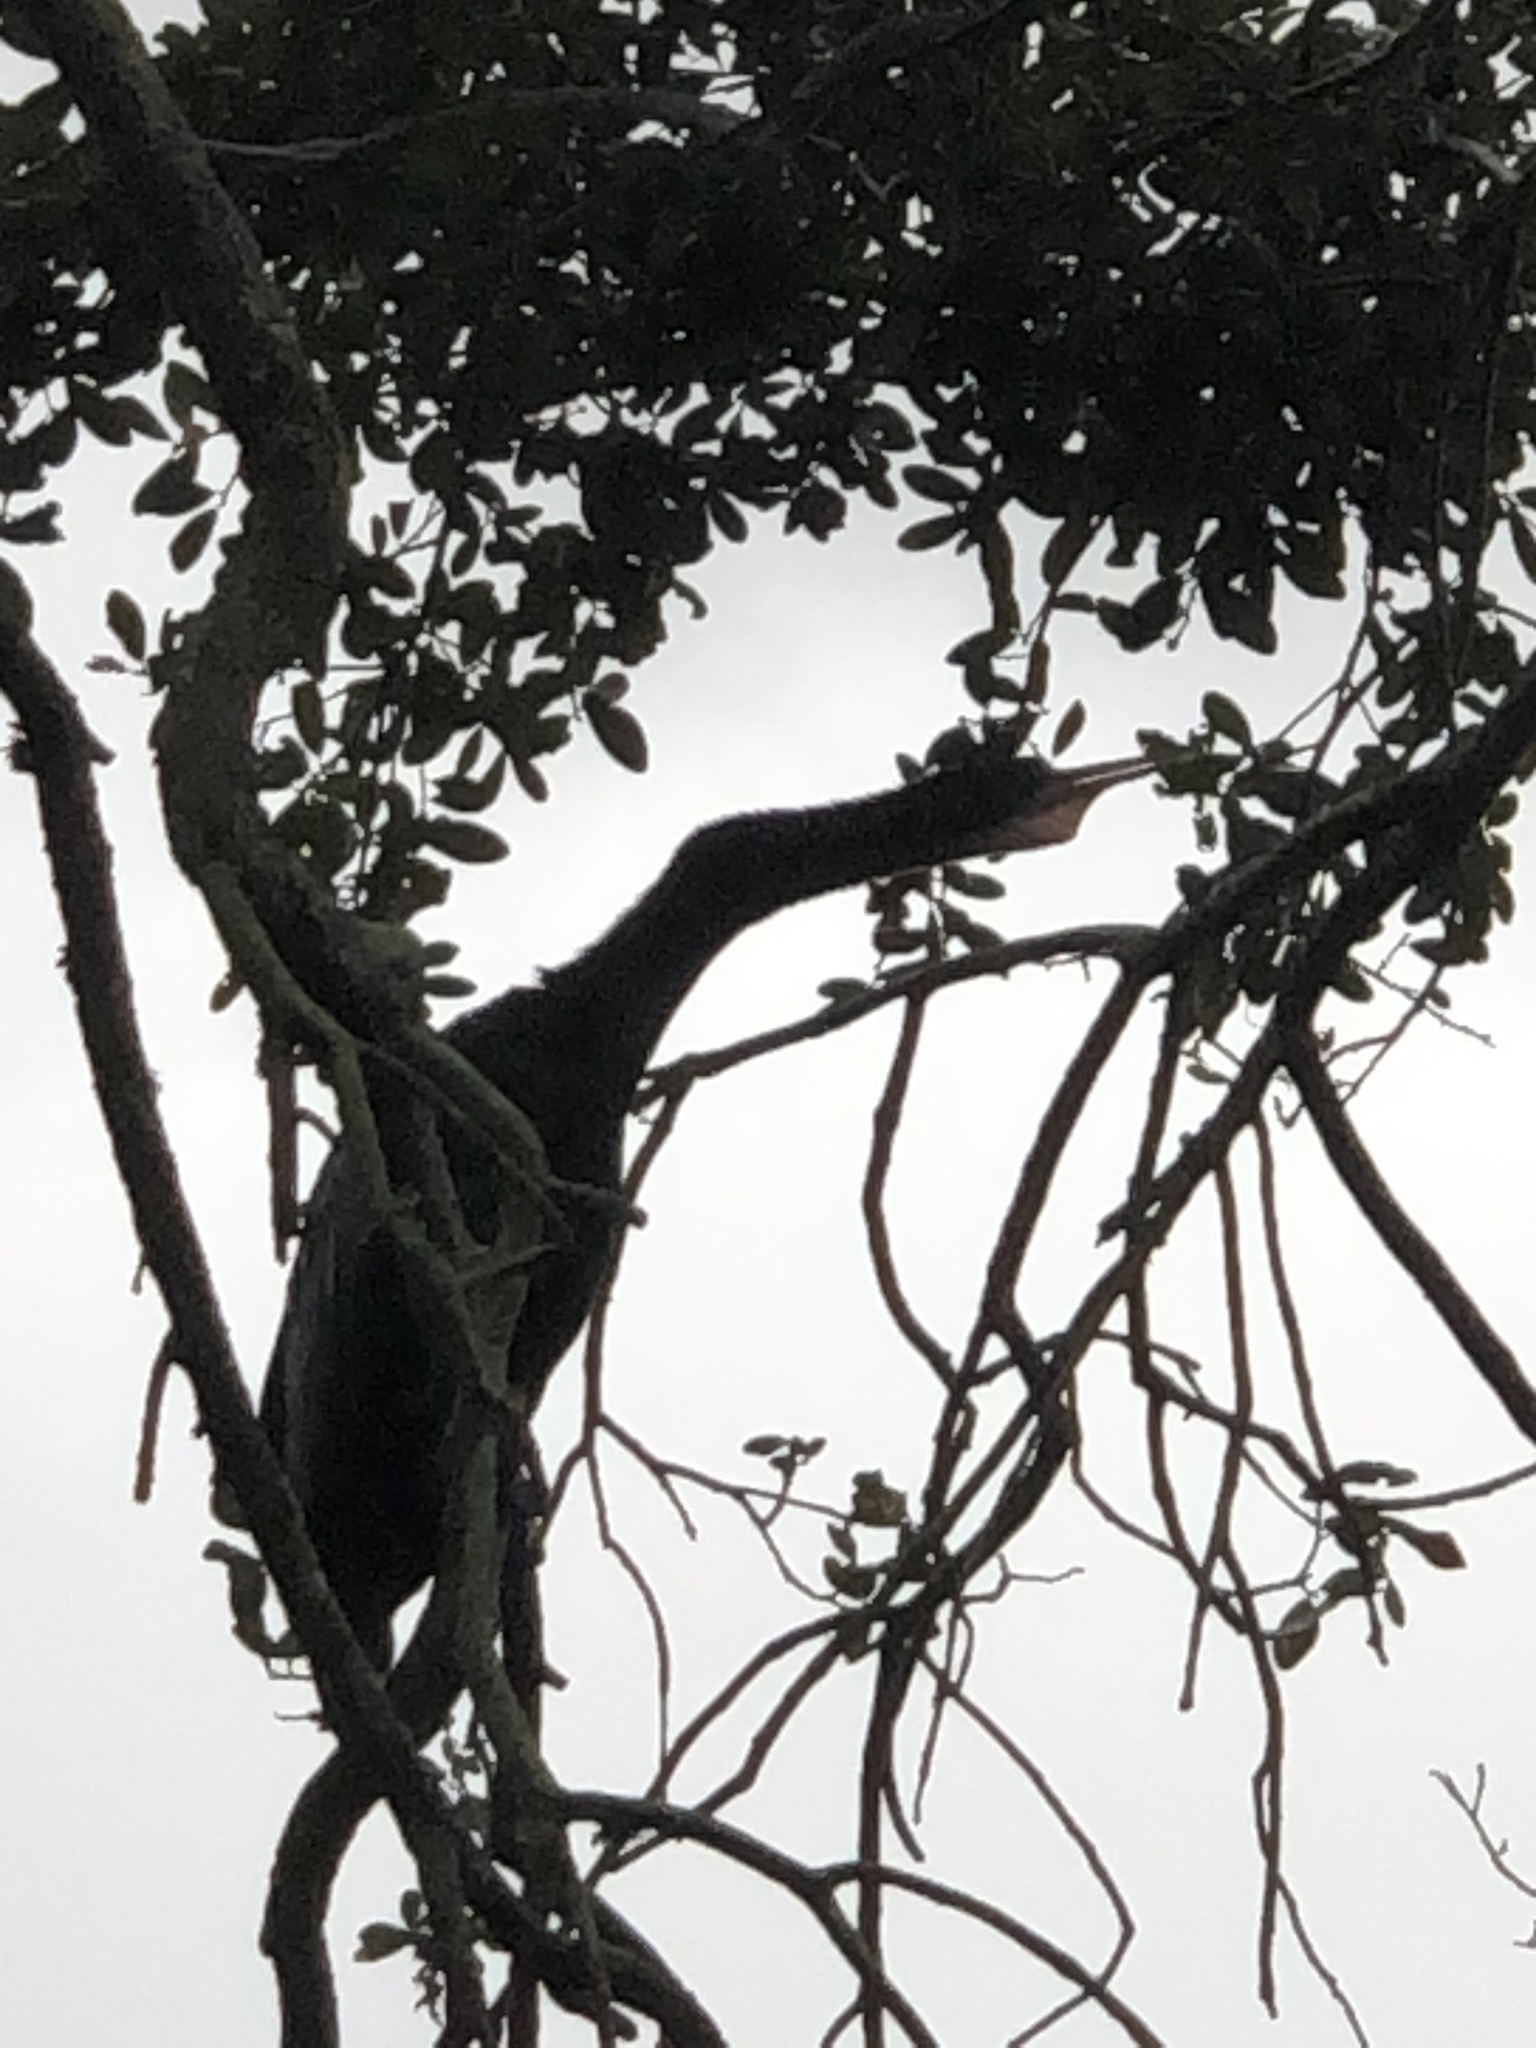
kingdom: Animalia
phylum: Chordata
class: Aves
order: Suliformes
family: Anhingidae
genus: Anhinga
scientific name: Anhinga anhinga
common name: Anhinga
